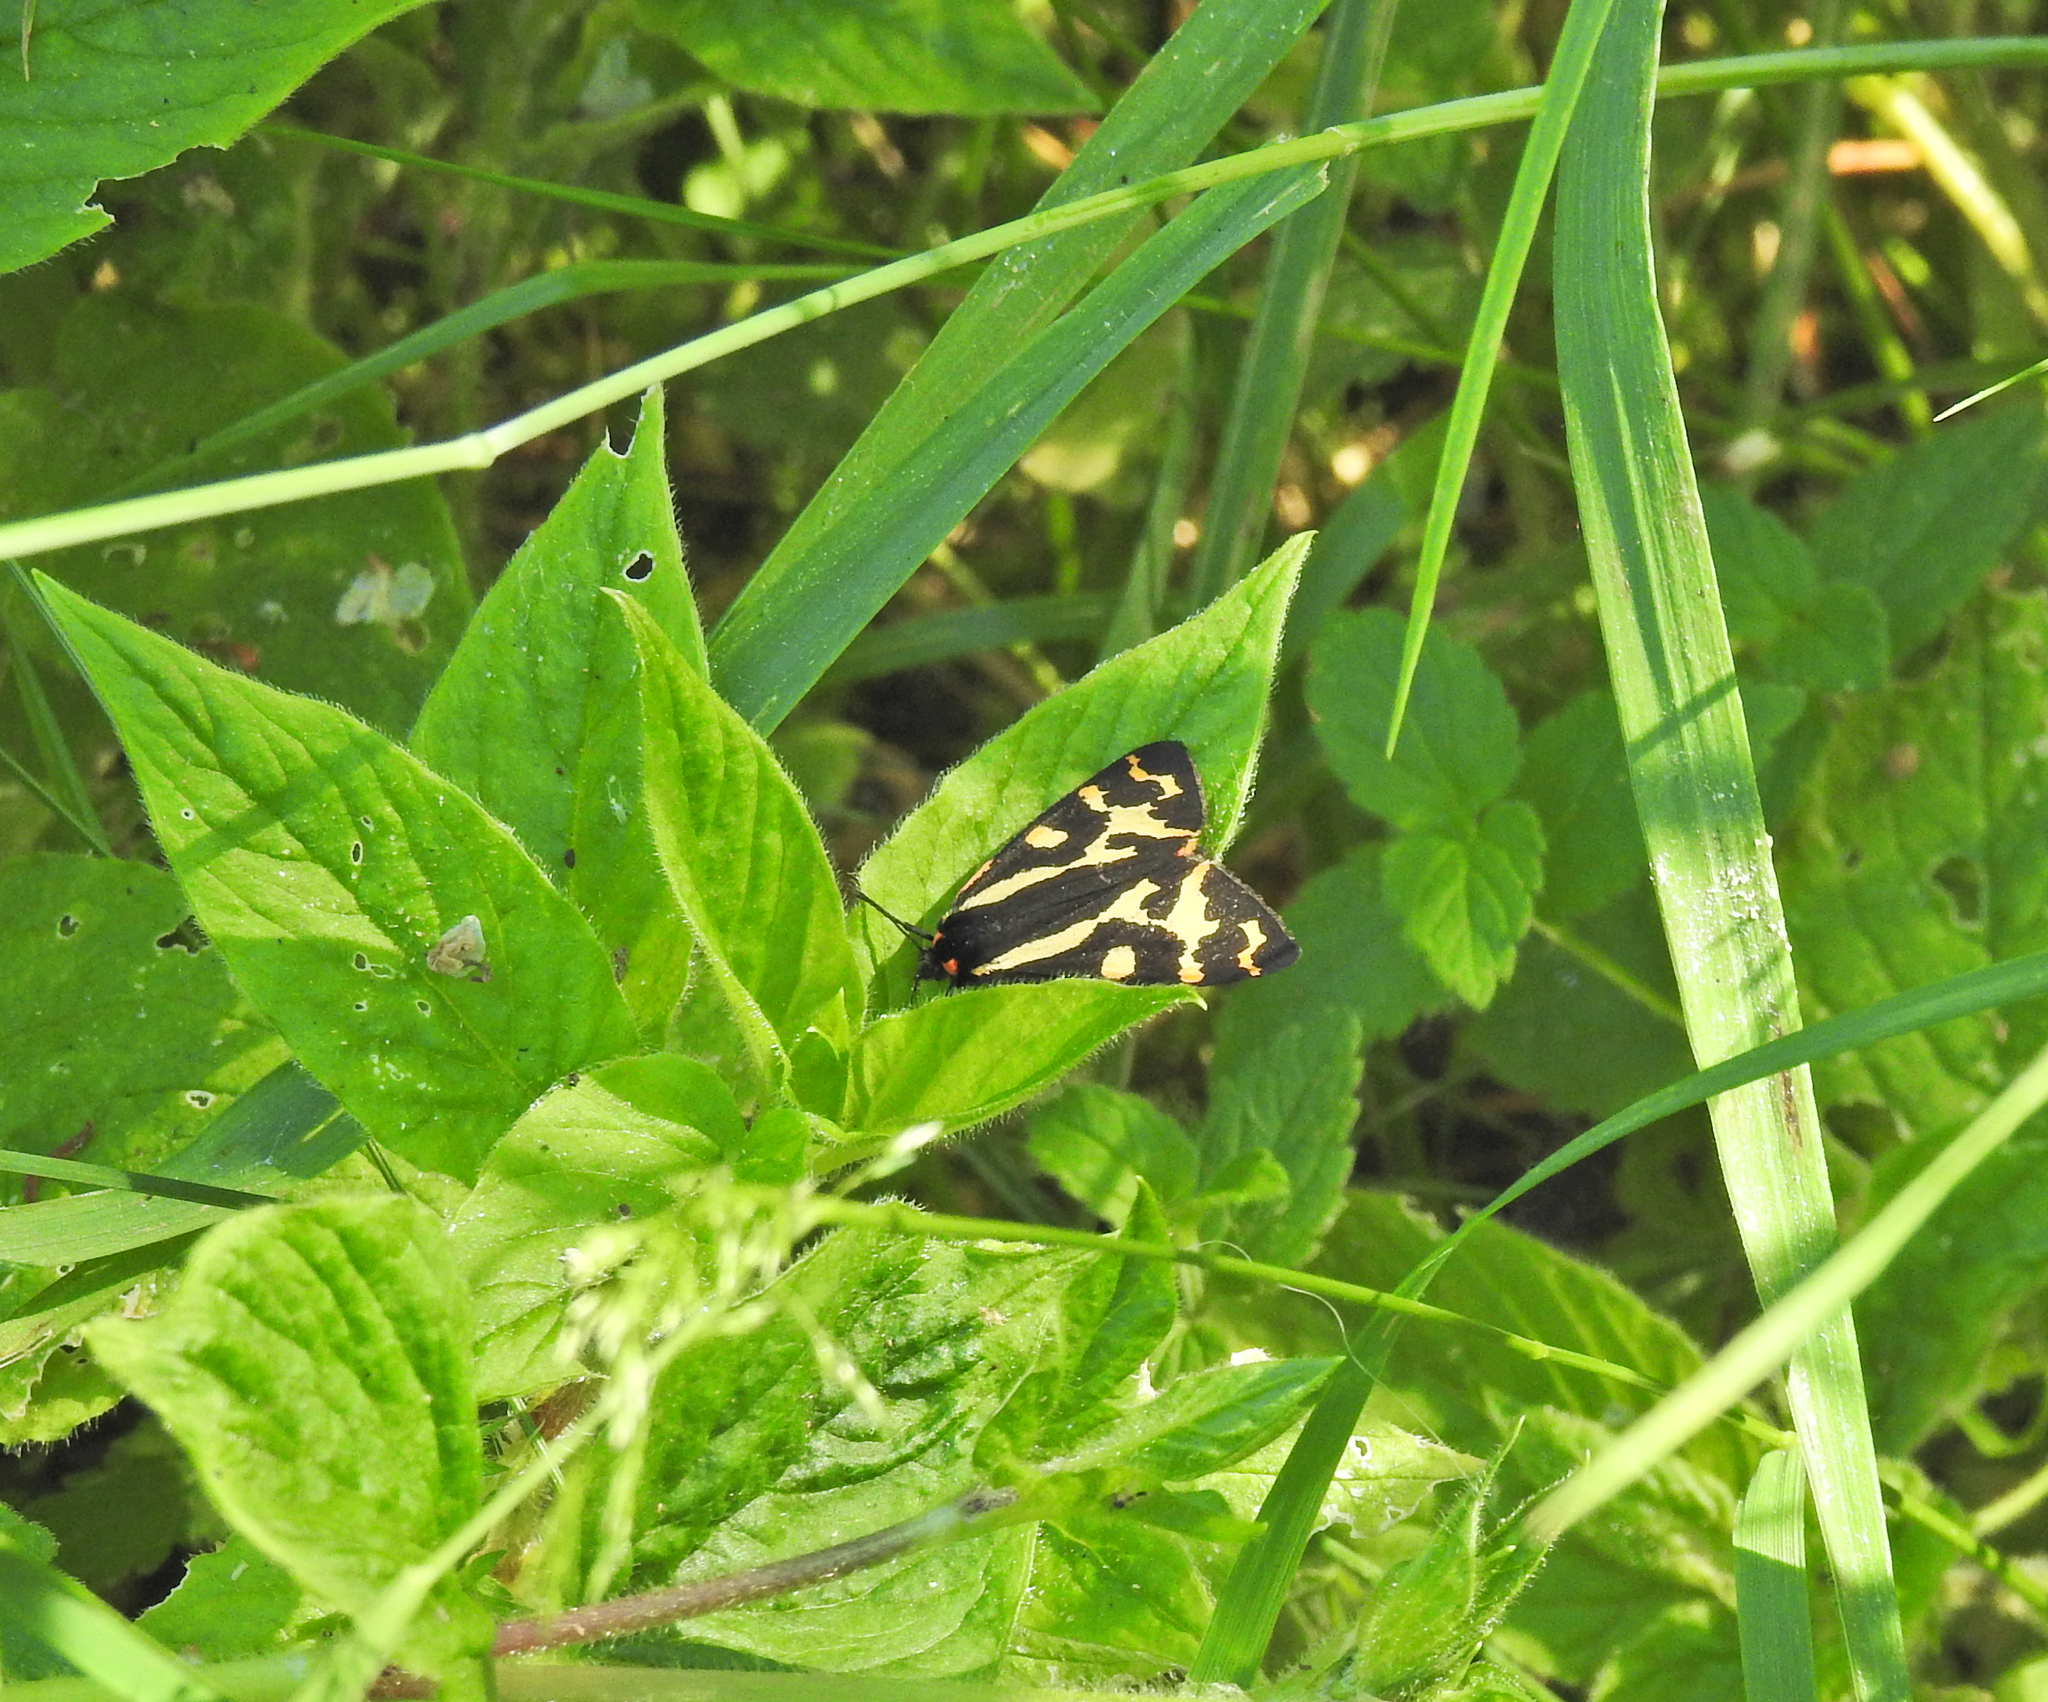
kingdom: Animalia
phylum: Arthropoda
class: Insecta
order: Lepidoptera
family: Erebidae
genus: Parasemia
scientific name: Parasemia plantaginis
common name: Wood tiger
